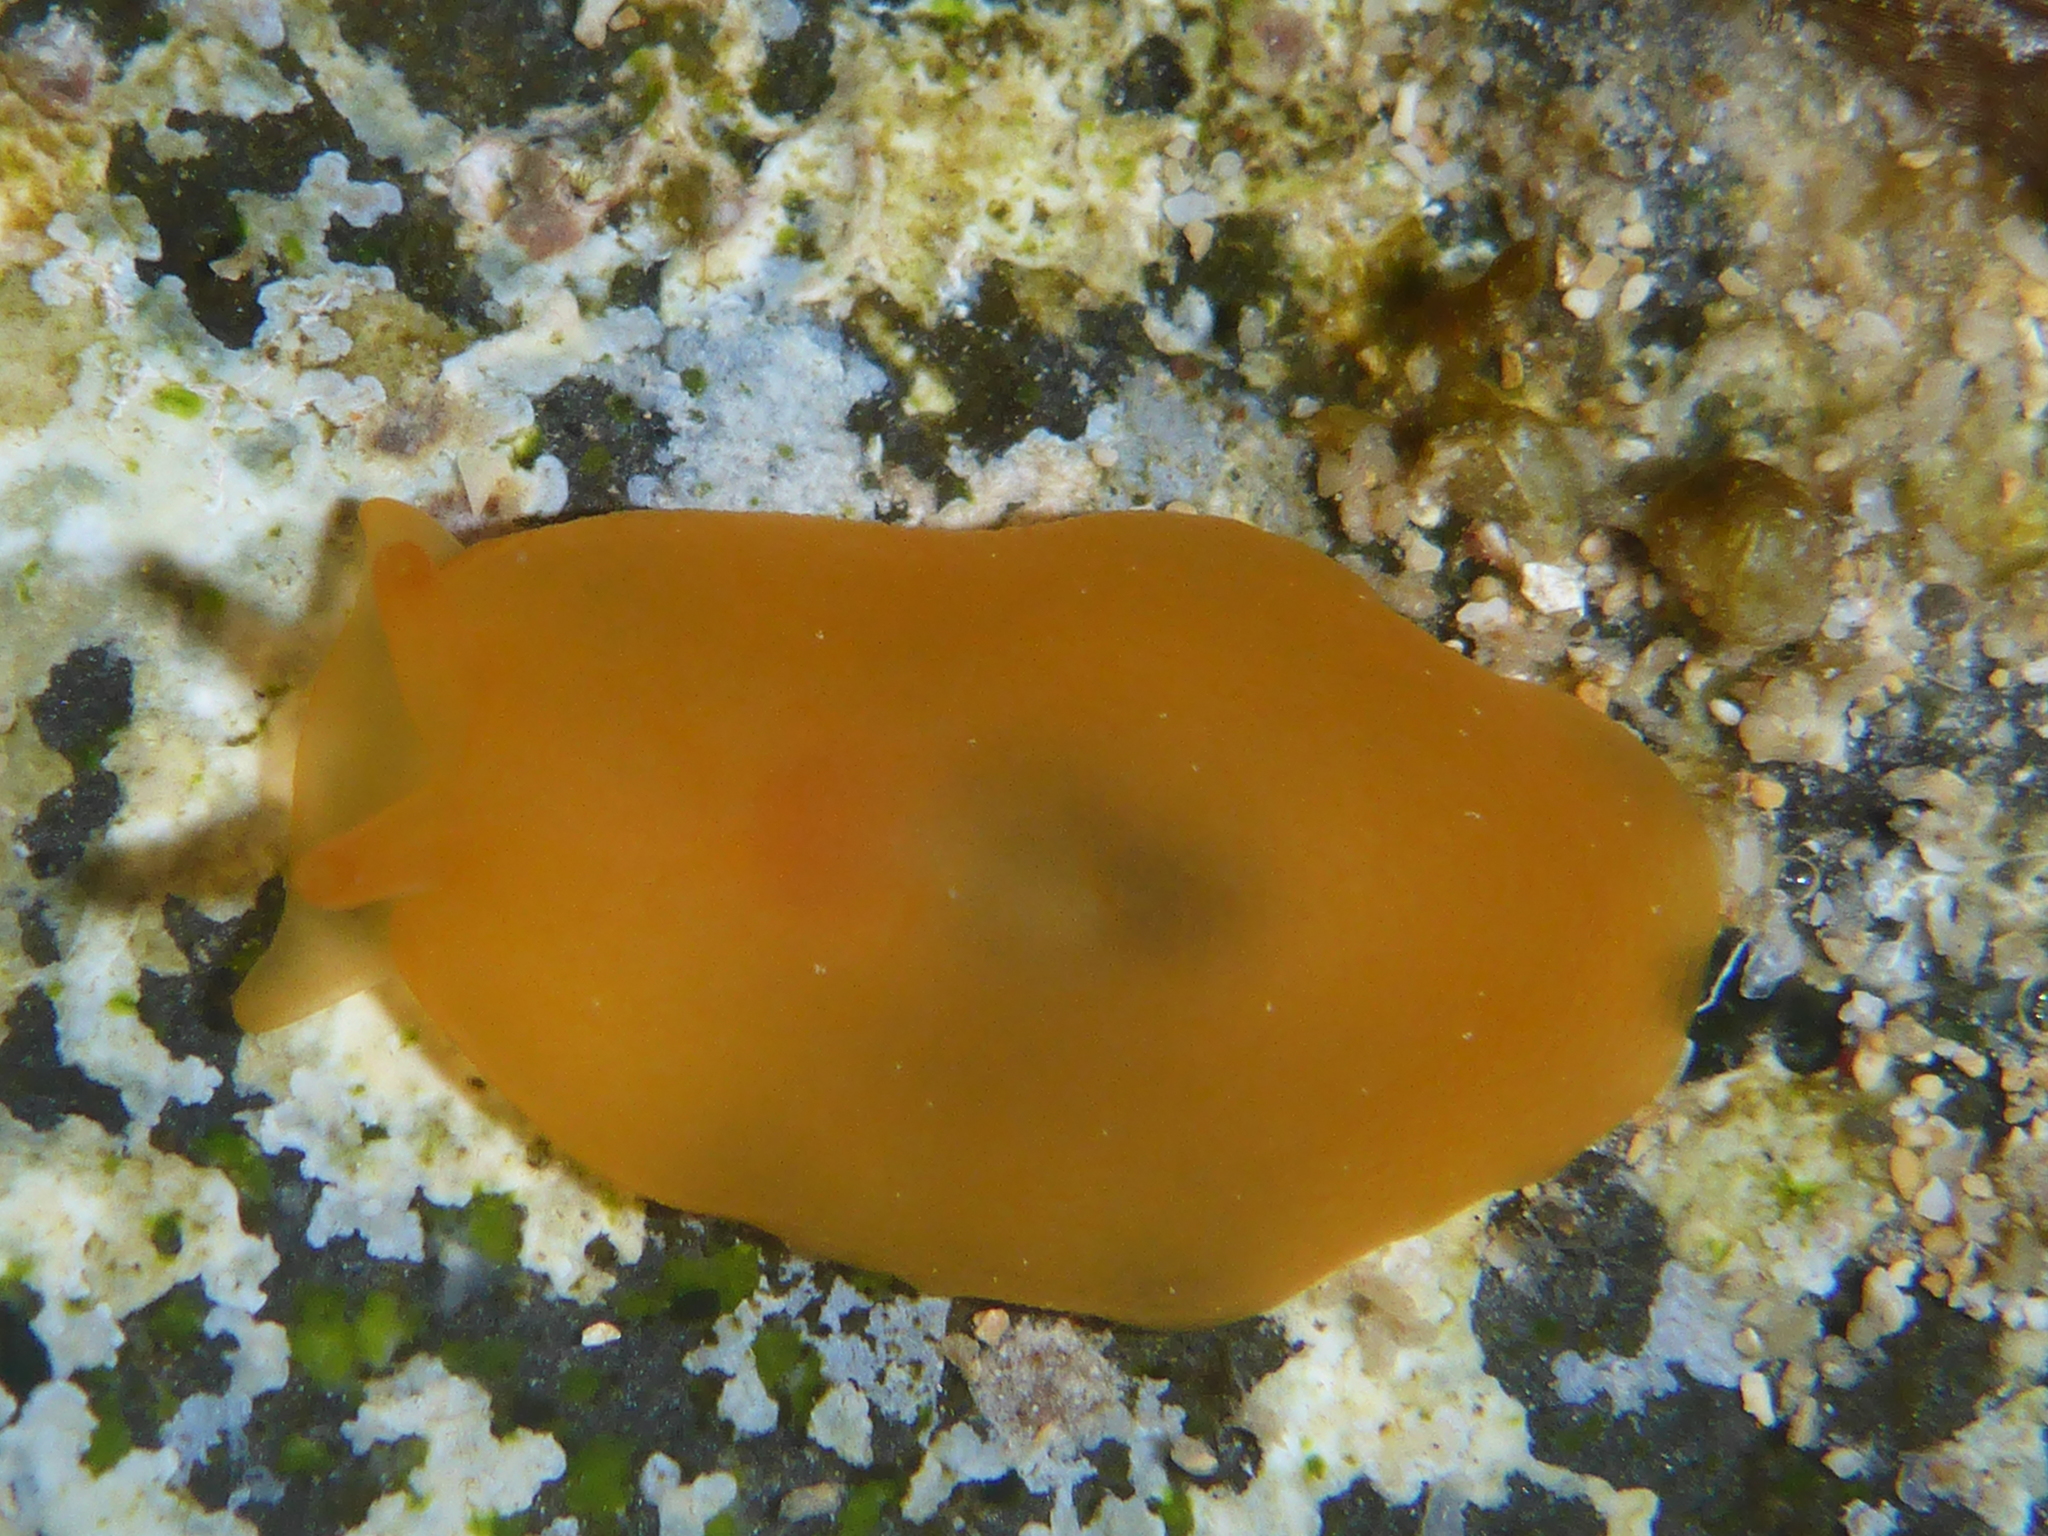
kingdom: Animalia
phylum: Mollusca
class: Gastropoda
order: Pleurobranchida
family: Pleurobranchidae
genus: Berthellina
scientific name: Berthellina delicata
